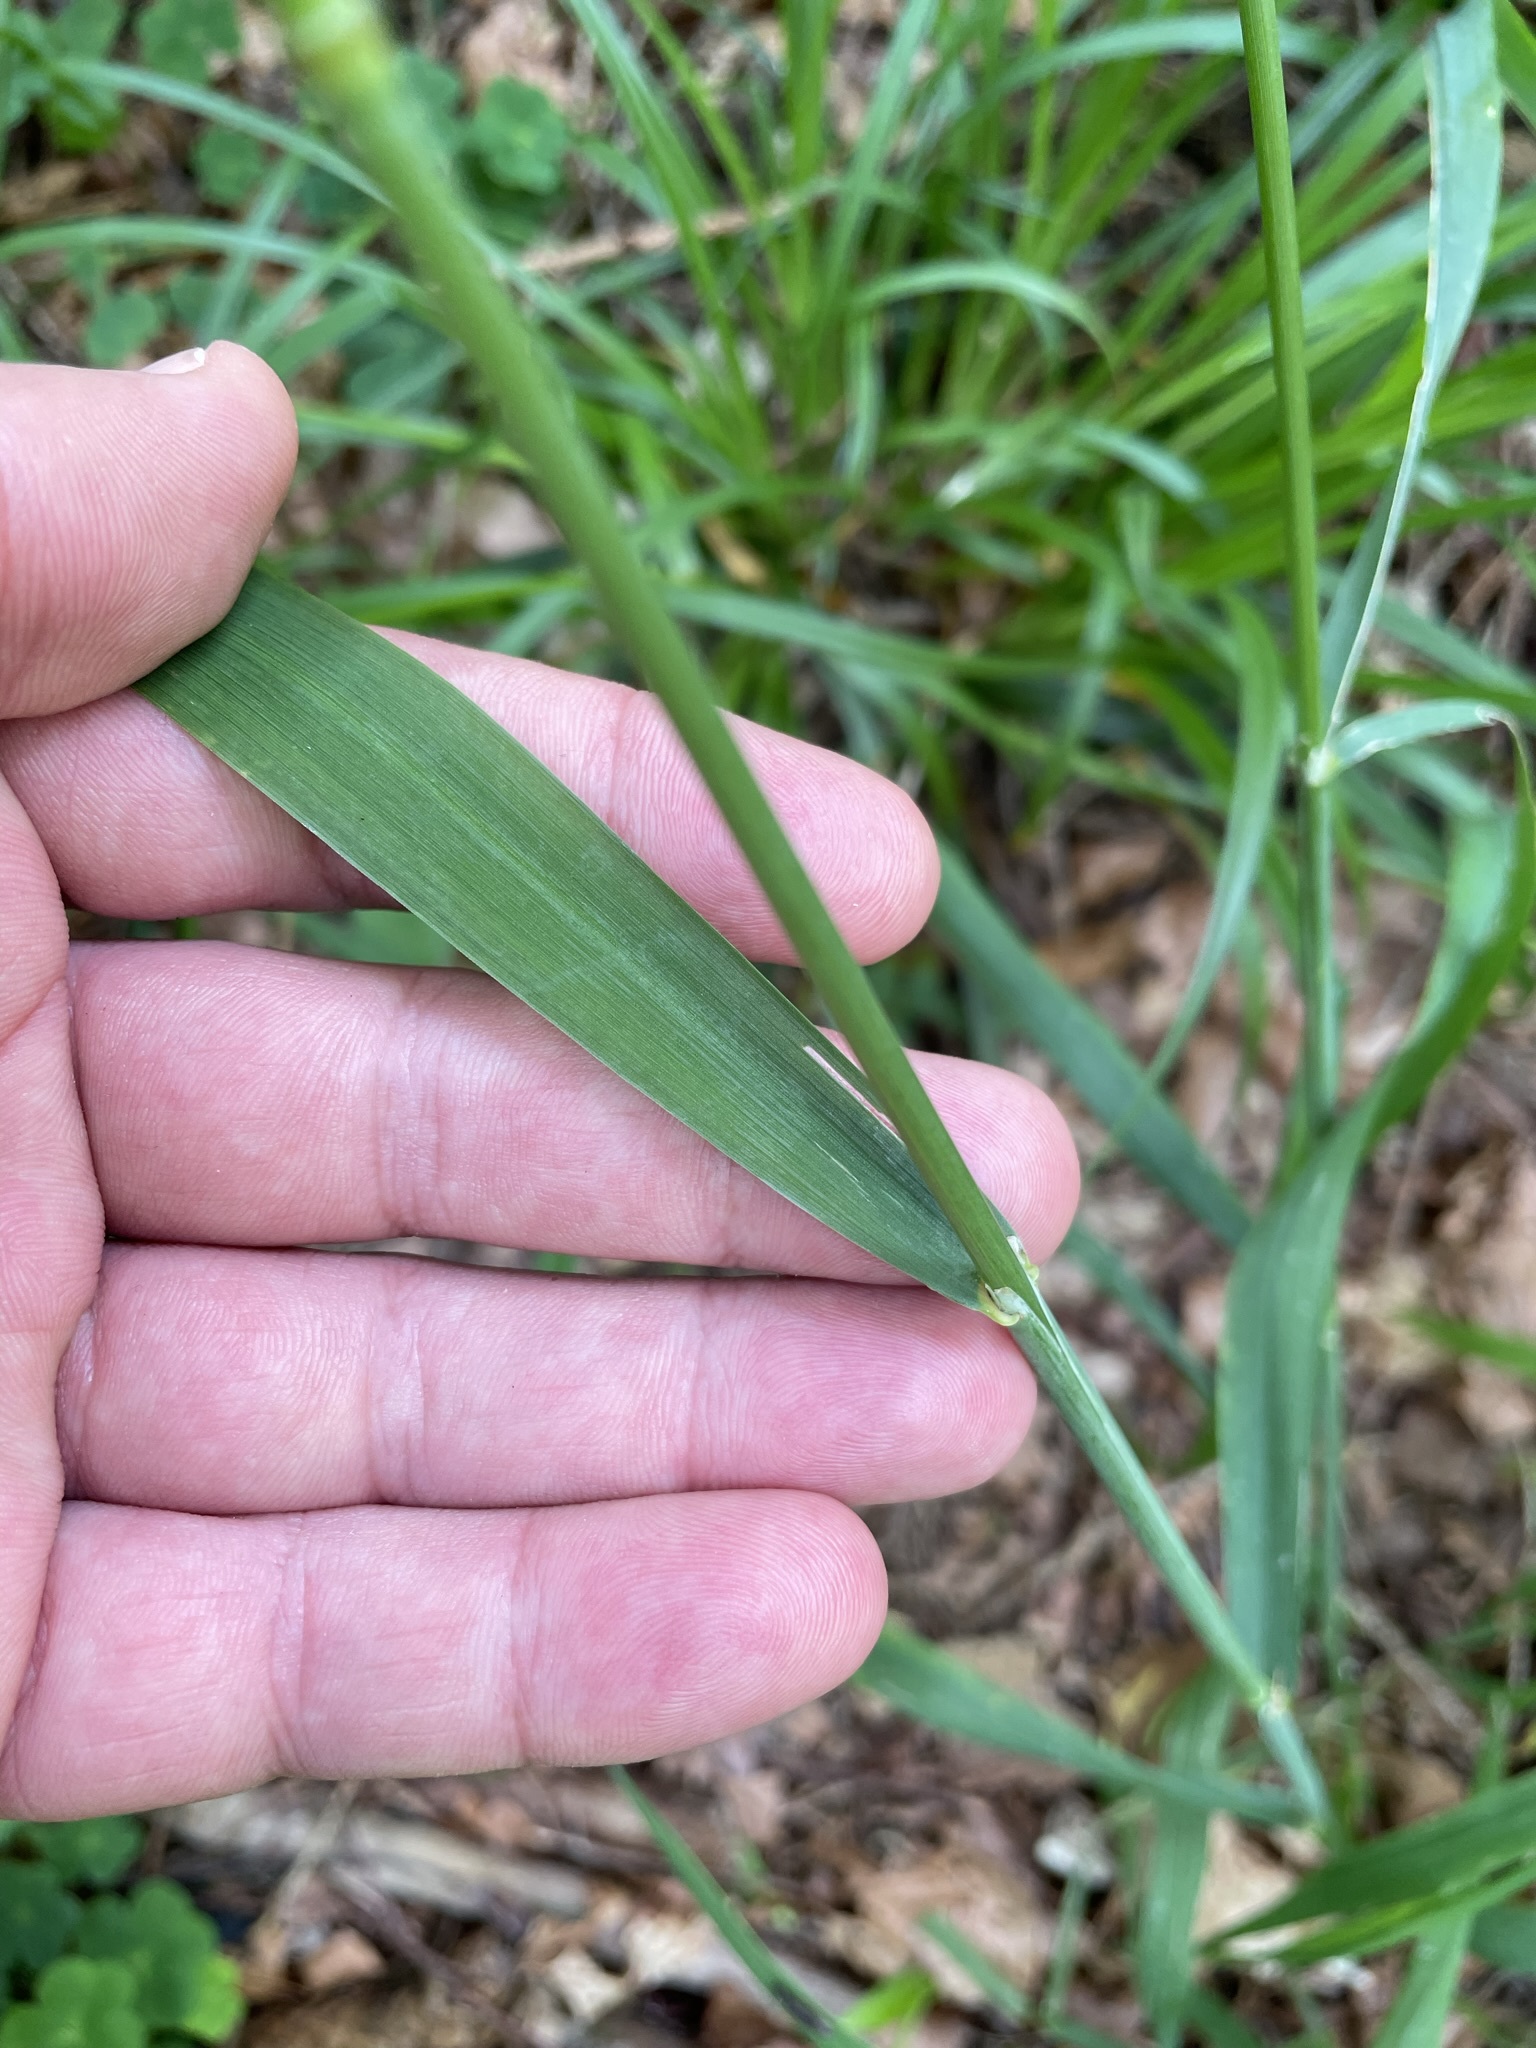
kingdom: Plantae
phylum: Tracheophyta
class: Liliopsida
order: Poales
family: Poaceae
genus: Milium
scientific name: Milium effusum
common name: Wood millet
